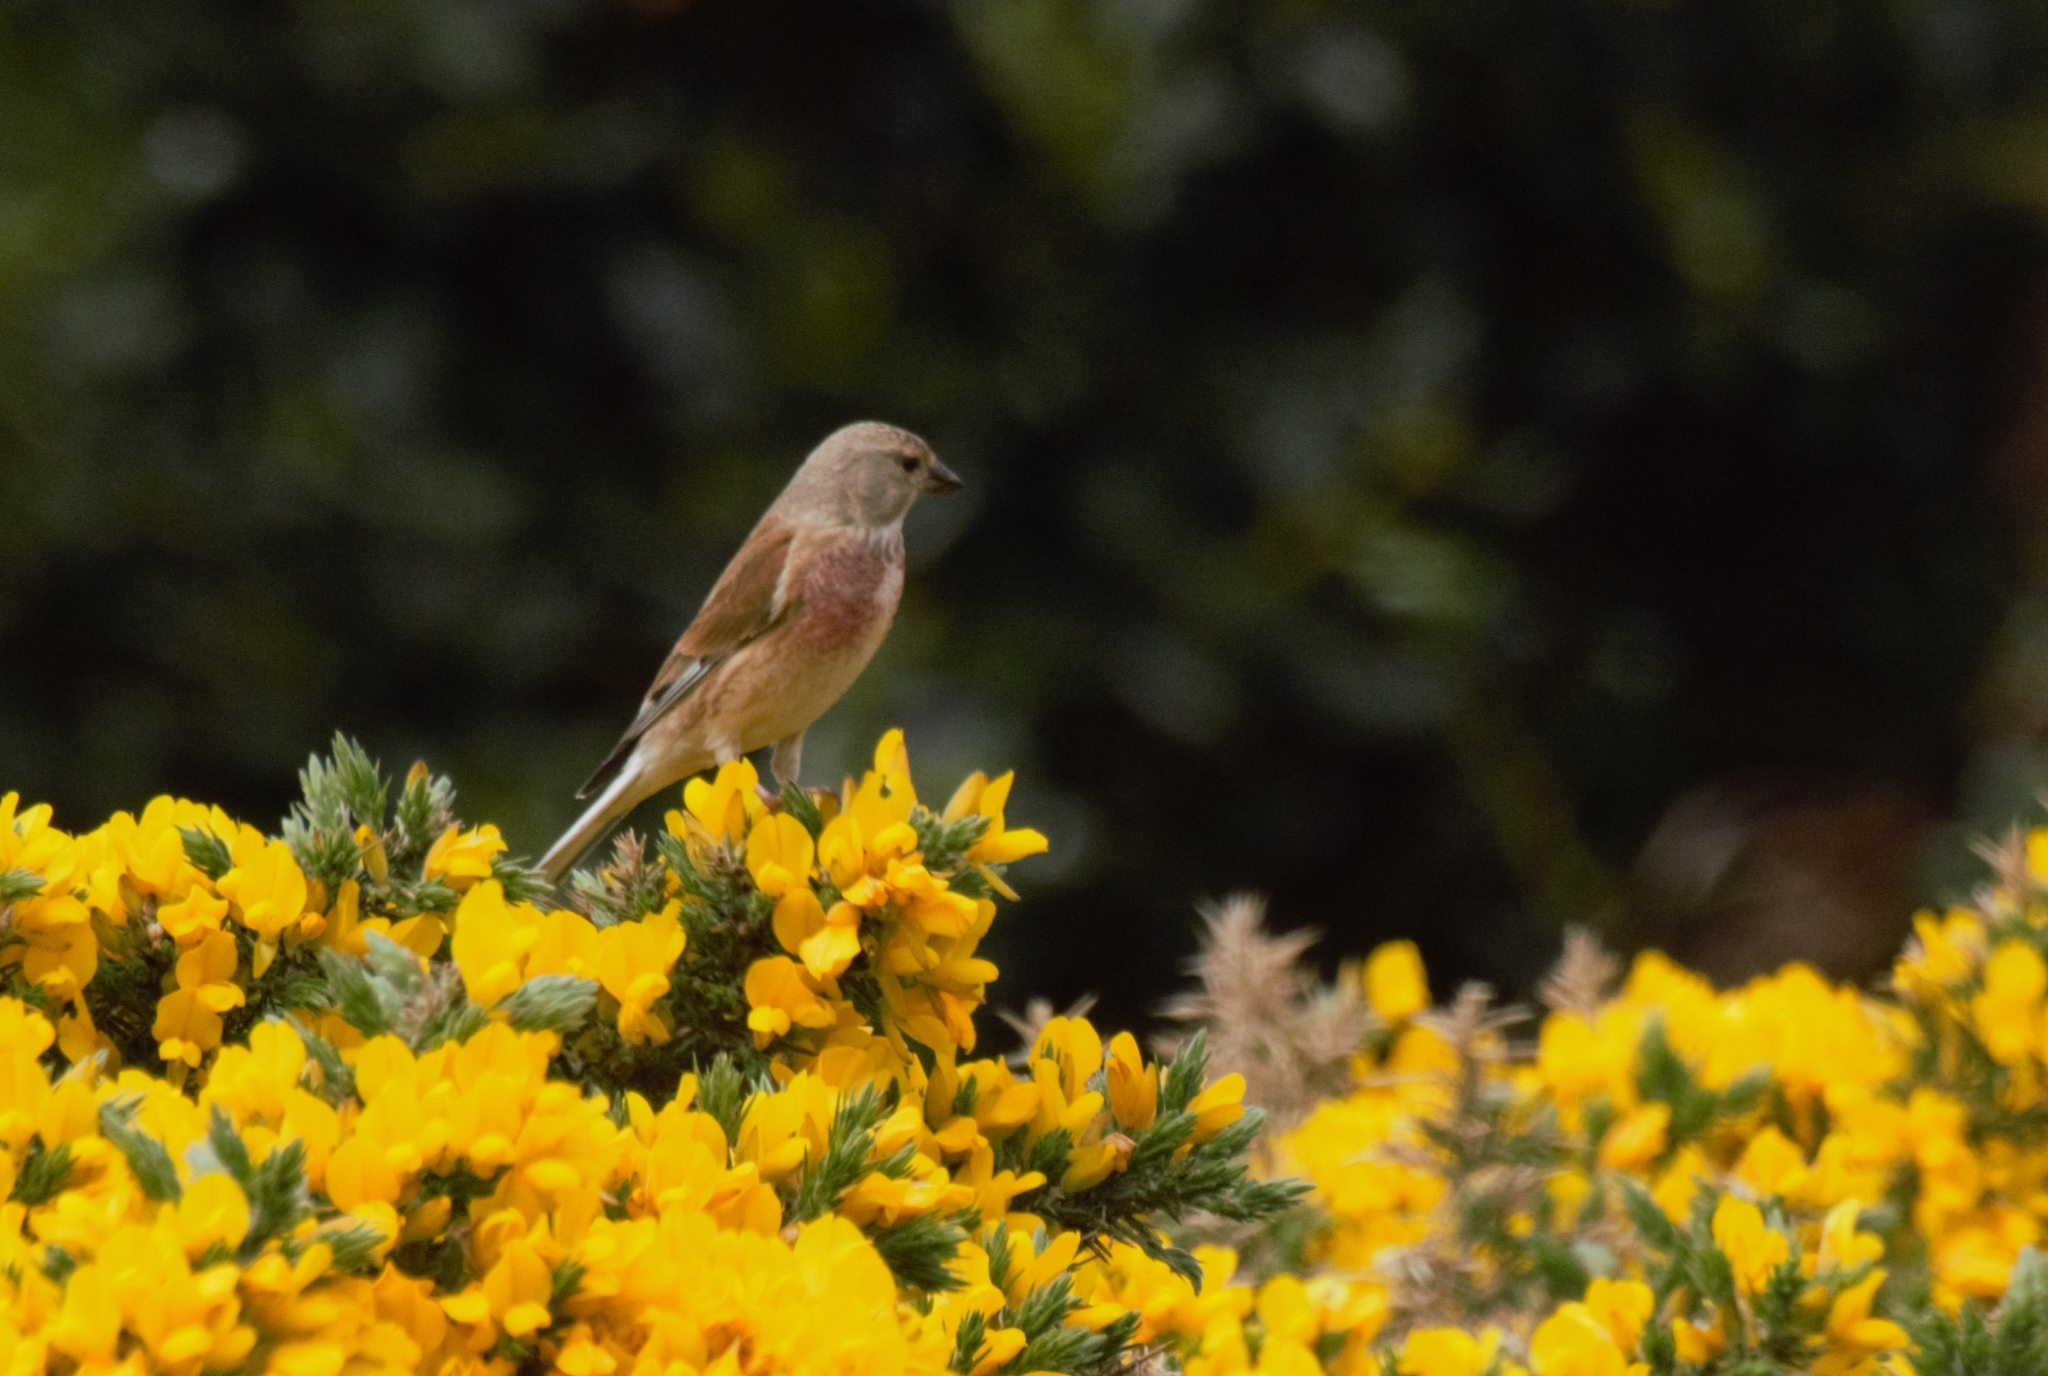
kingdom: Animalia
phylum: Chordata
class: Aves
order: Passeriformes
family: Fringillidae
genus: Linaria
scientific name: Linaria cannabina
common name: Common linnet
